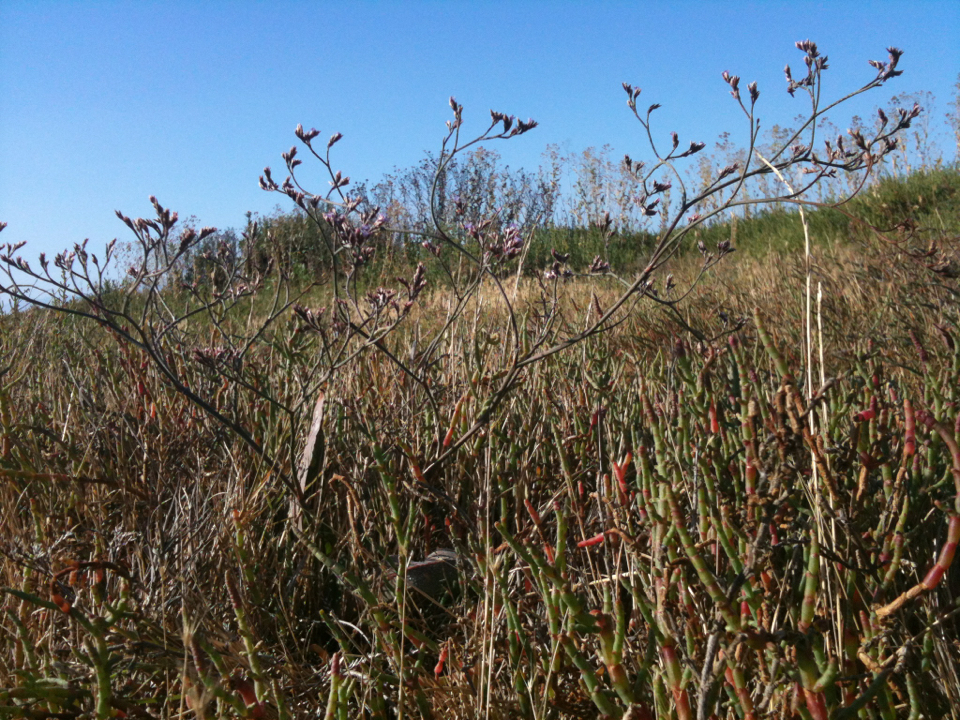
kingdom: Plantae
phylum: Tracheophyta
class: Magnoliopsida
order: Caryophyllales
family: Plumbaginaceae
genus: Limonium
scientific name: Limonium californicum
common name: Marsh-rosemary
